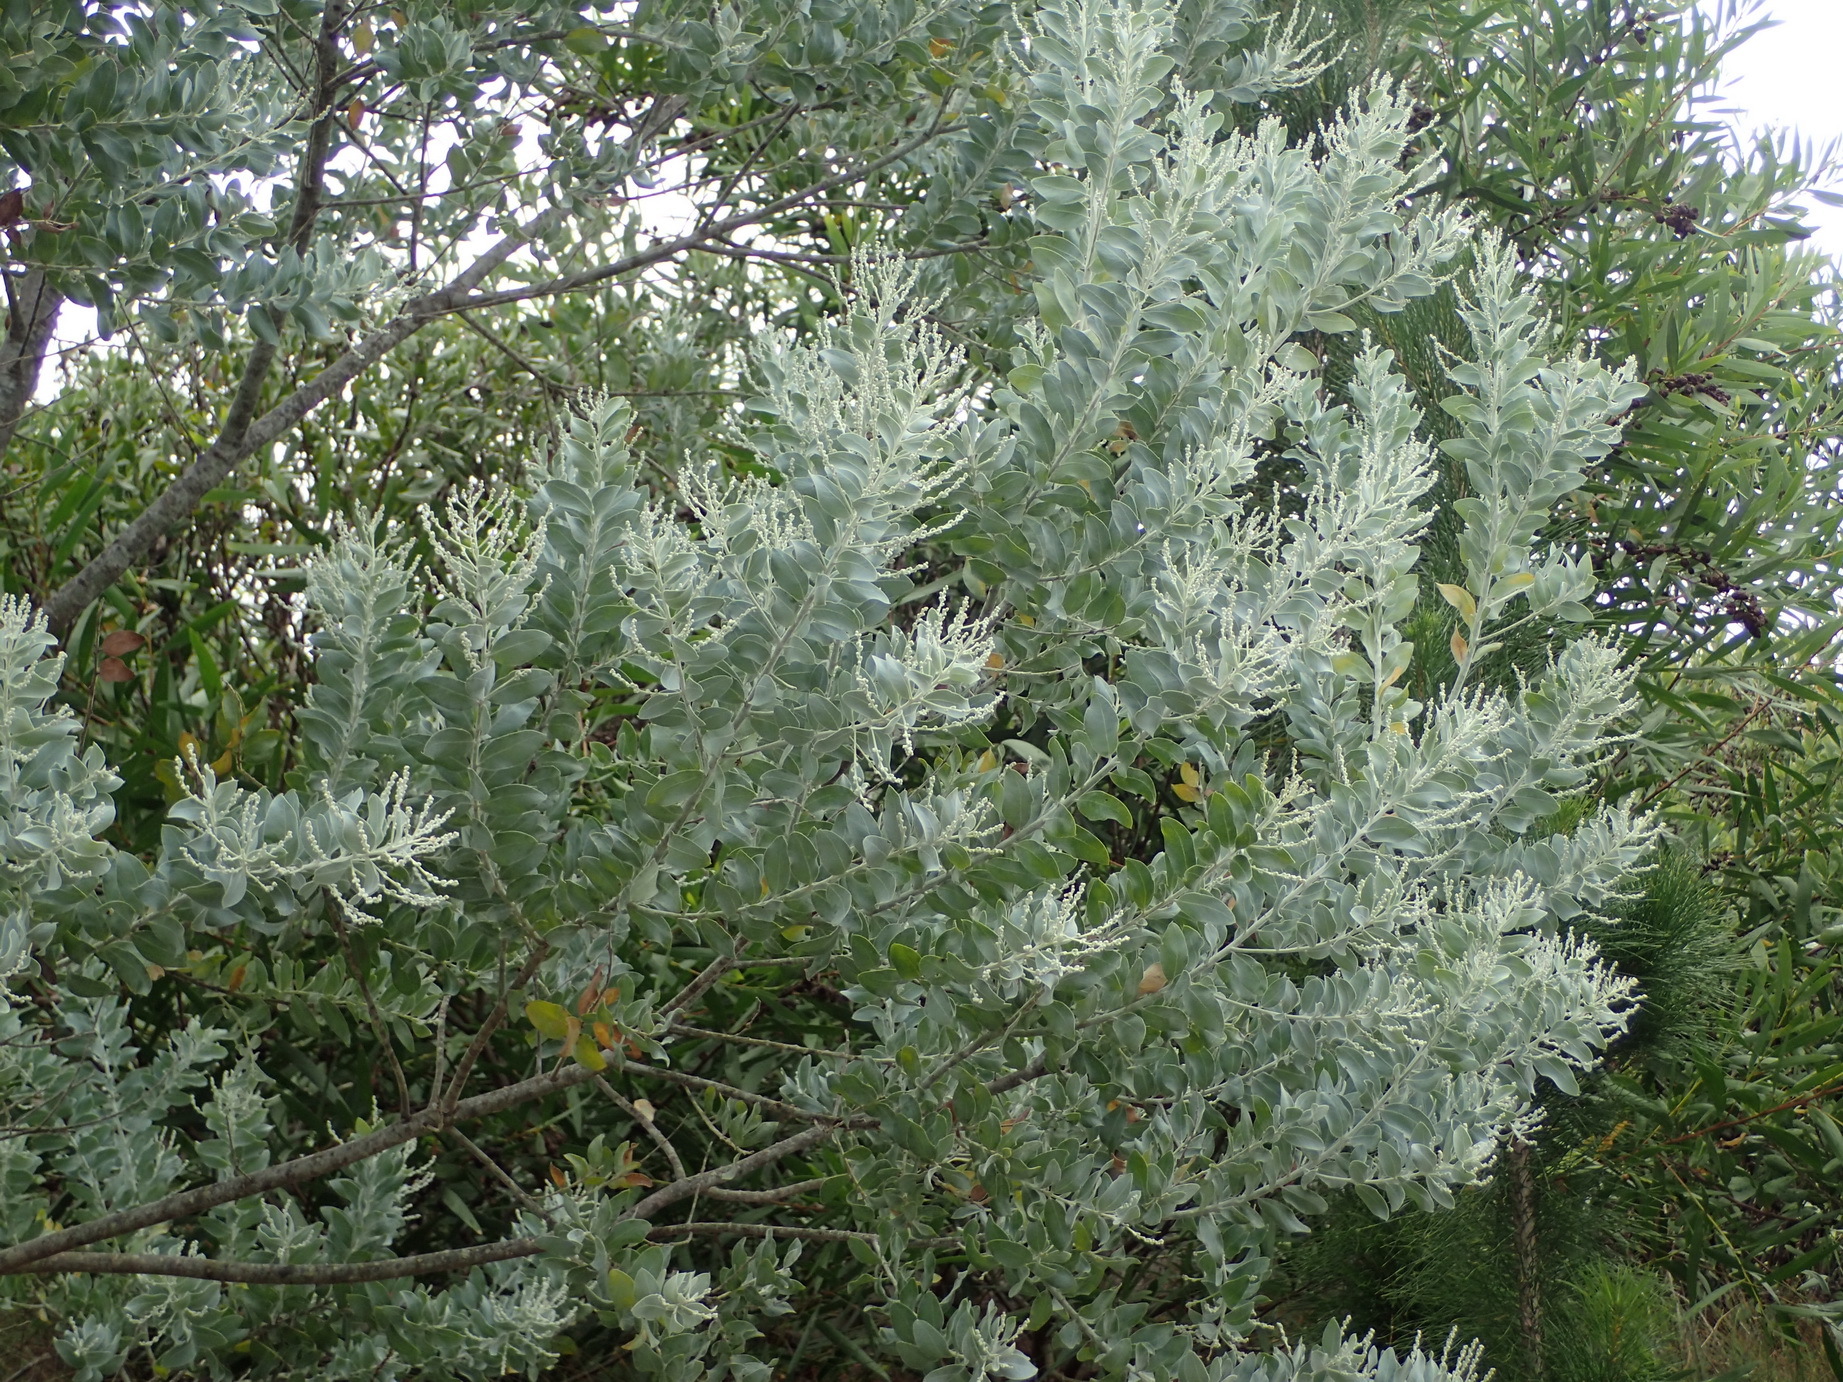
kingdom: Plantae
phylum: Tracheophyta
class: Magnoliopsida
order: Fabales
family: Fabaceae
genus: Acacia
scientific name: Acacia podalyriifolia
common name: Pearl wattle
